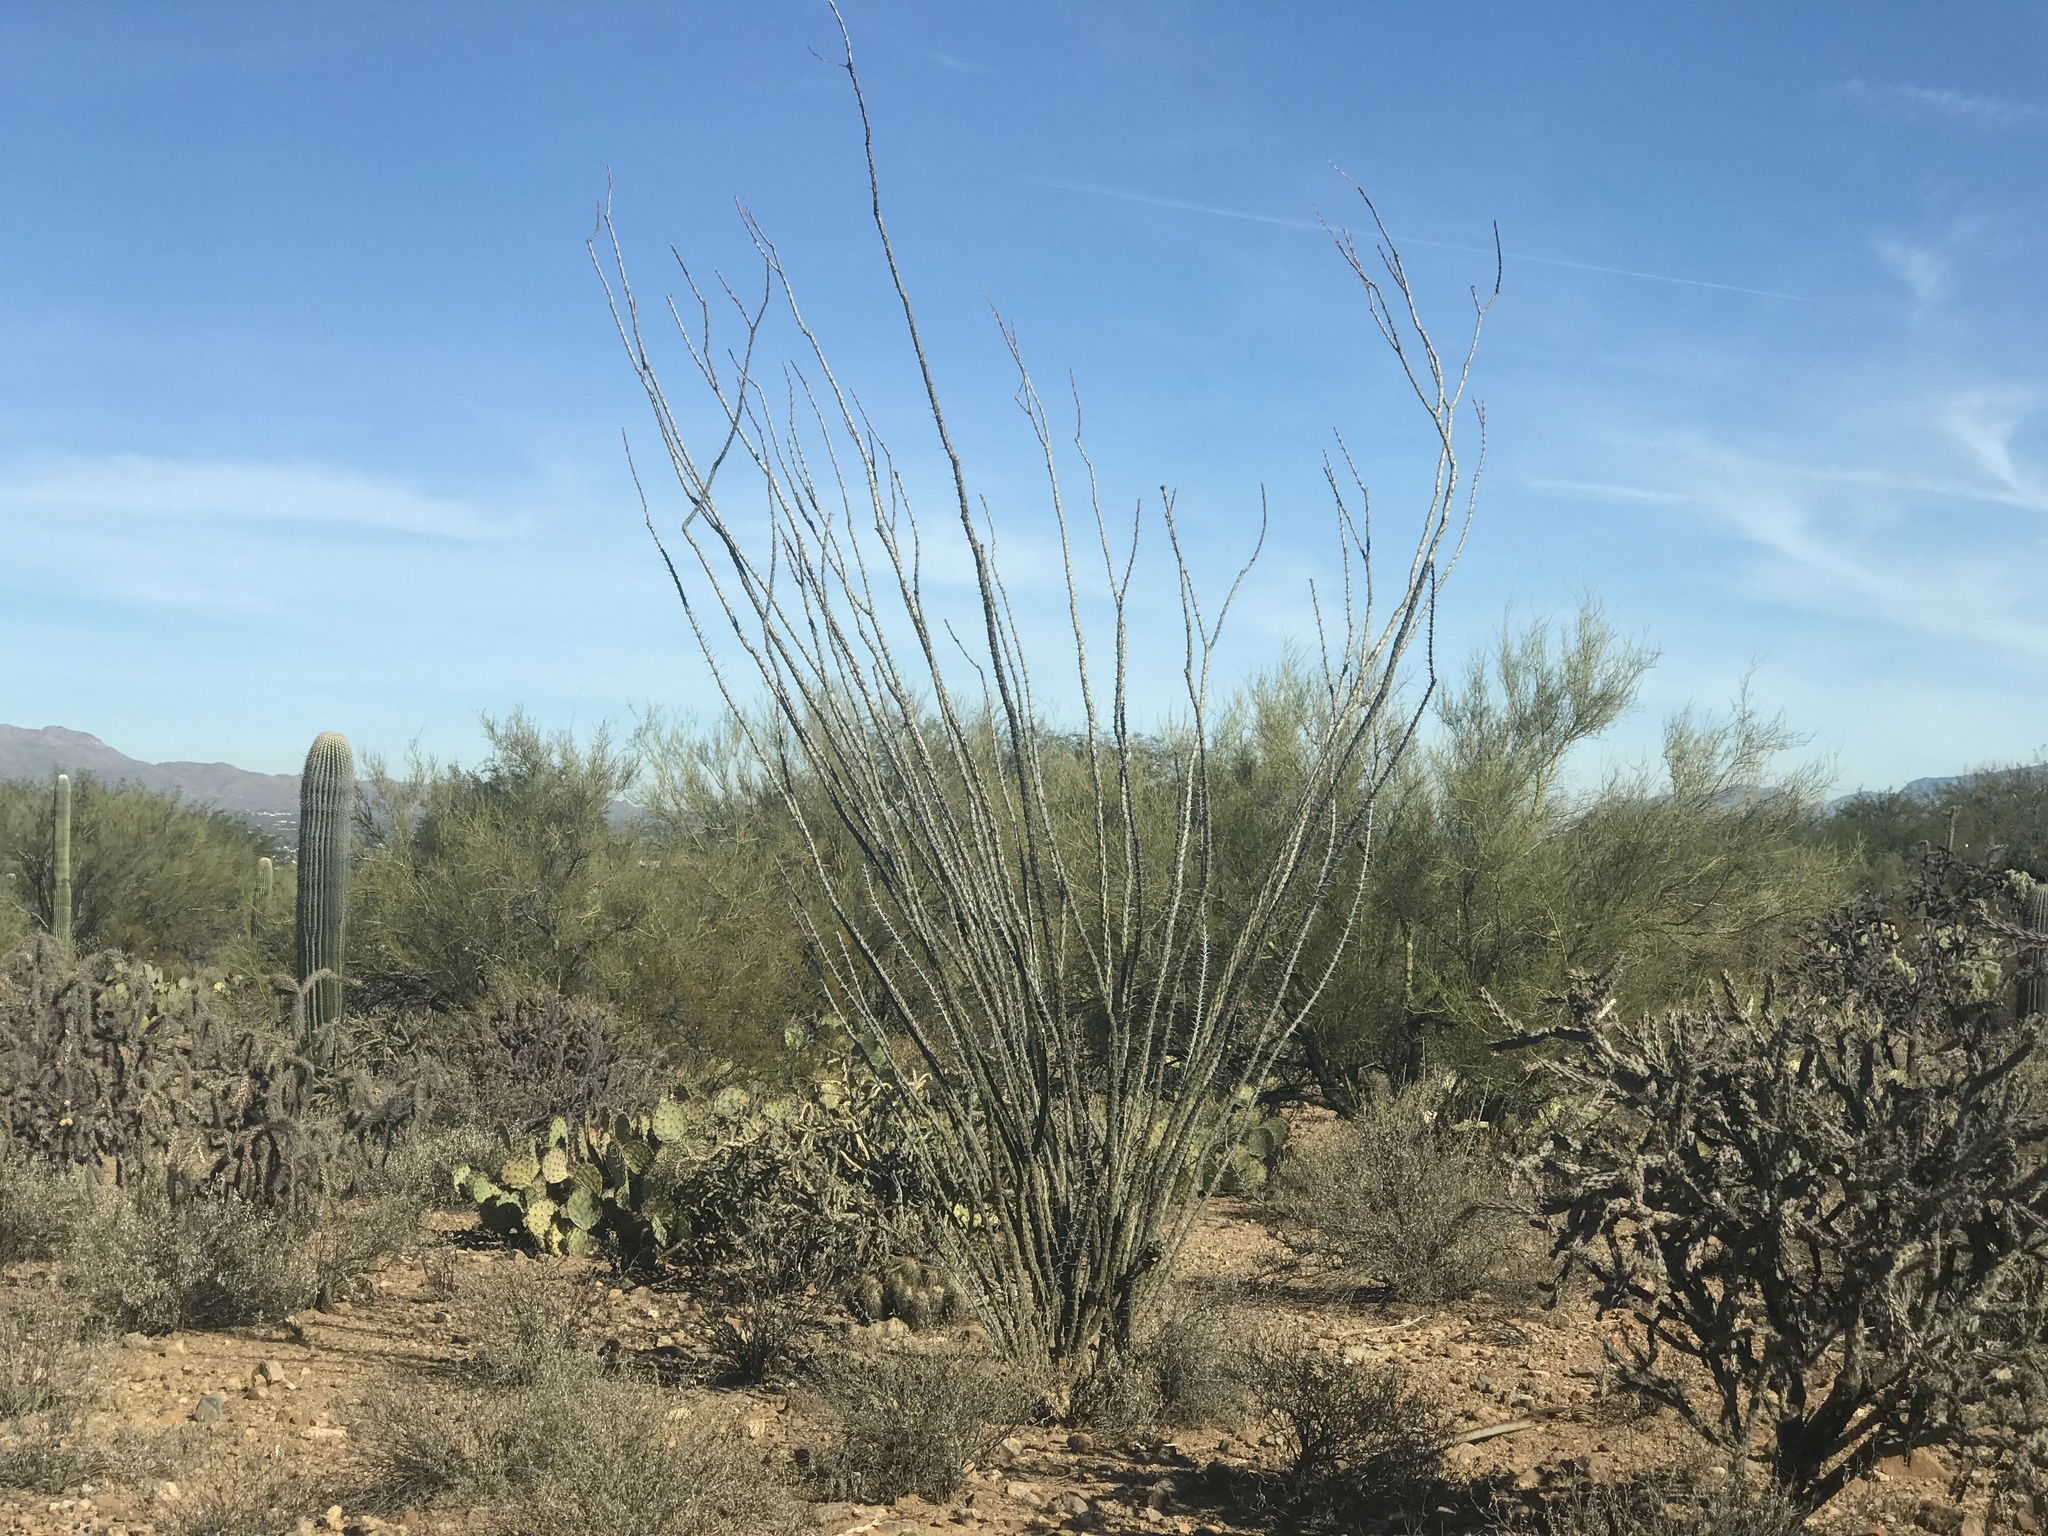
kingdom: Plantae
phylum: Tracheophyta
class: Magnoliopsida
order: Ericales
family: Fouquieriaceae
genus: Fouquieria
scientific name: Fouquieria splendens
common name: Vine-cactus
